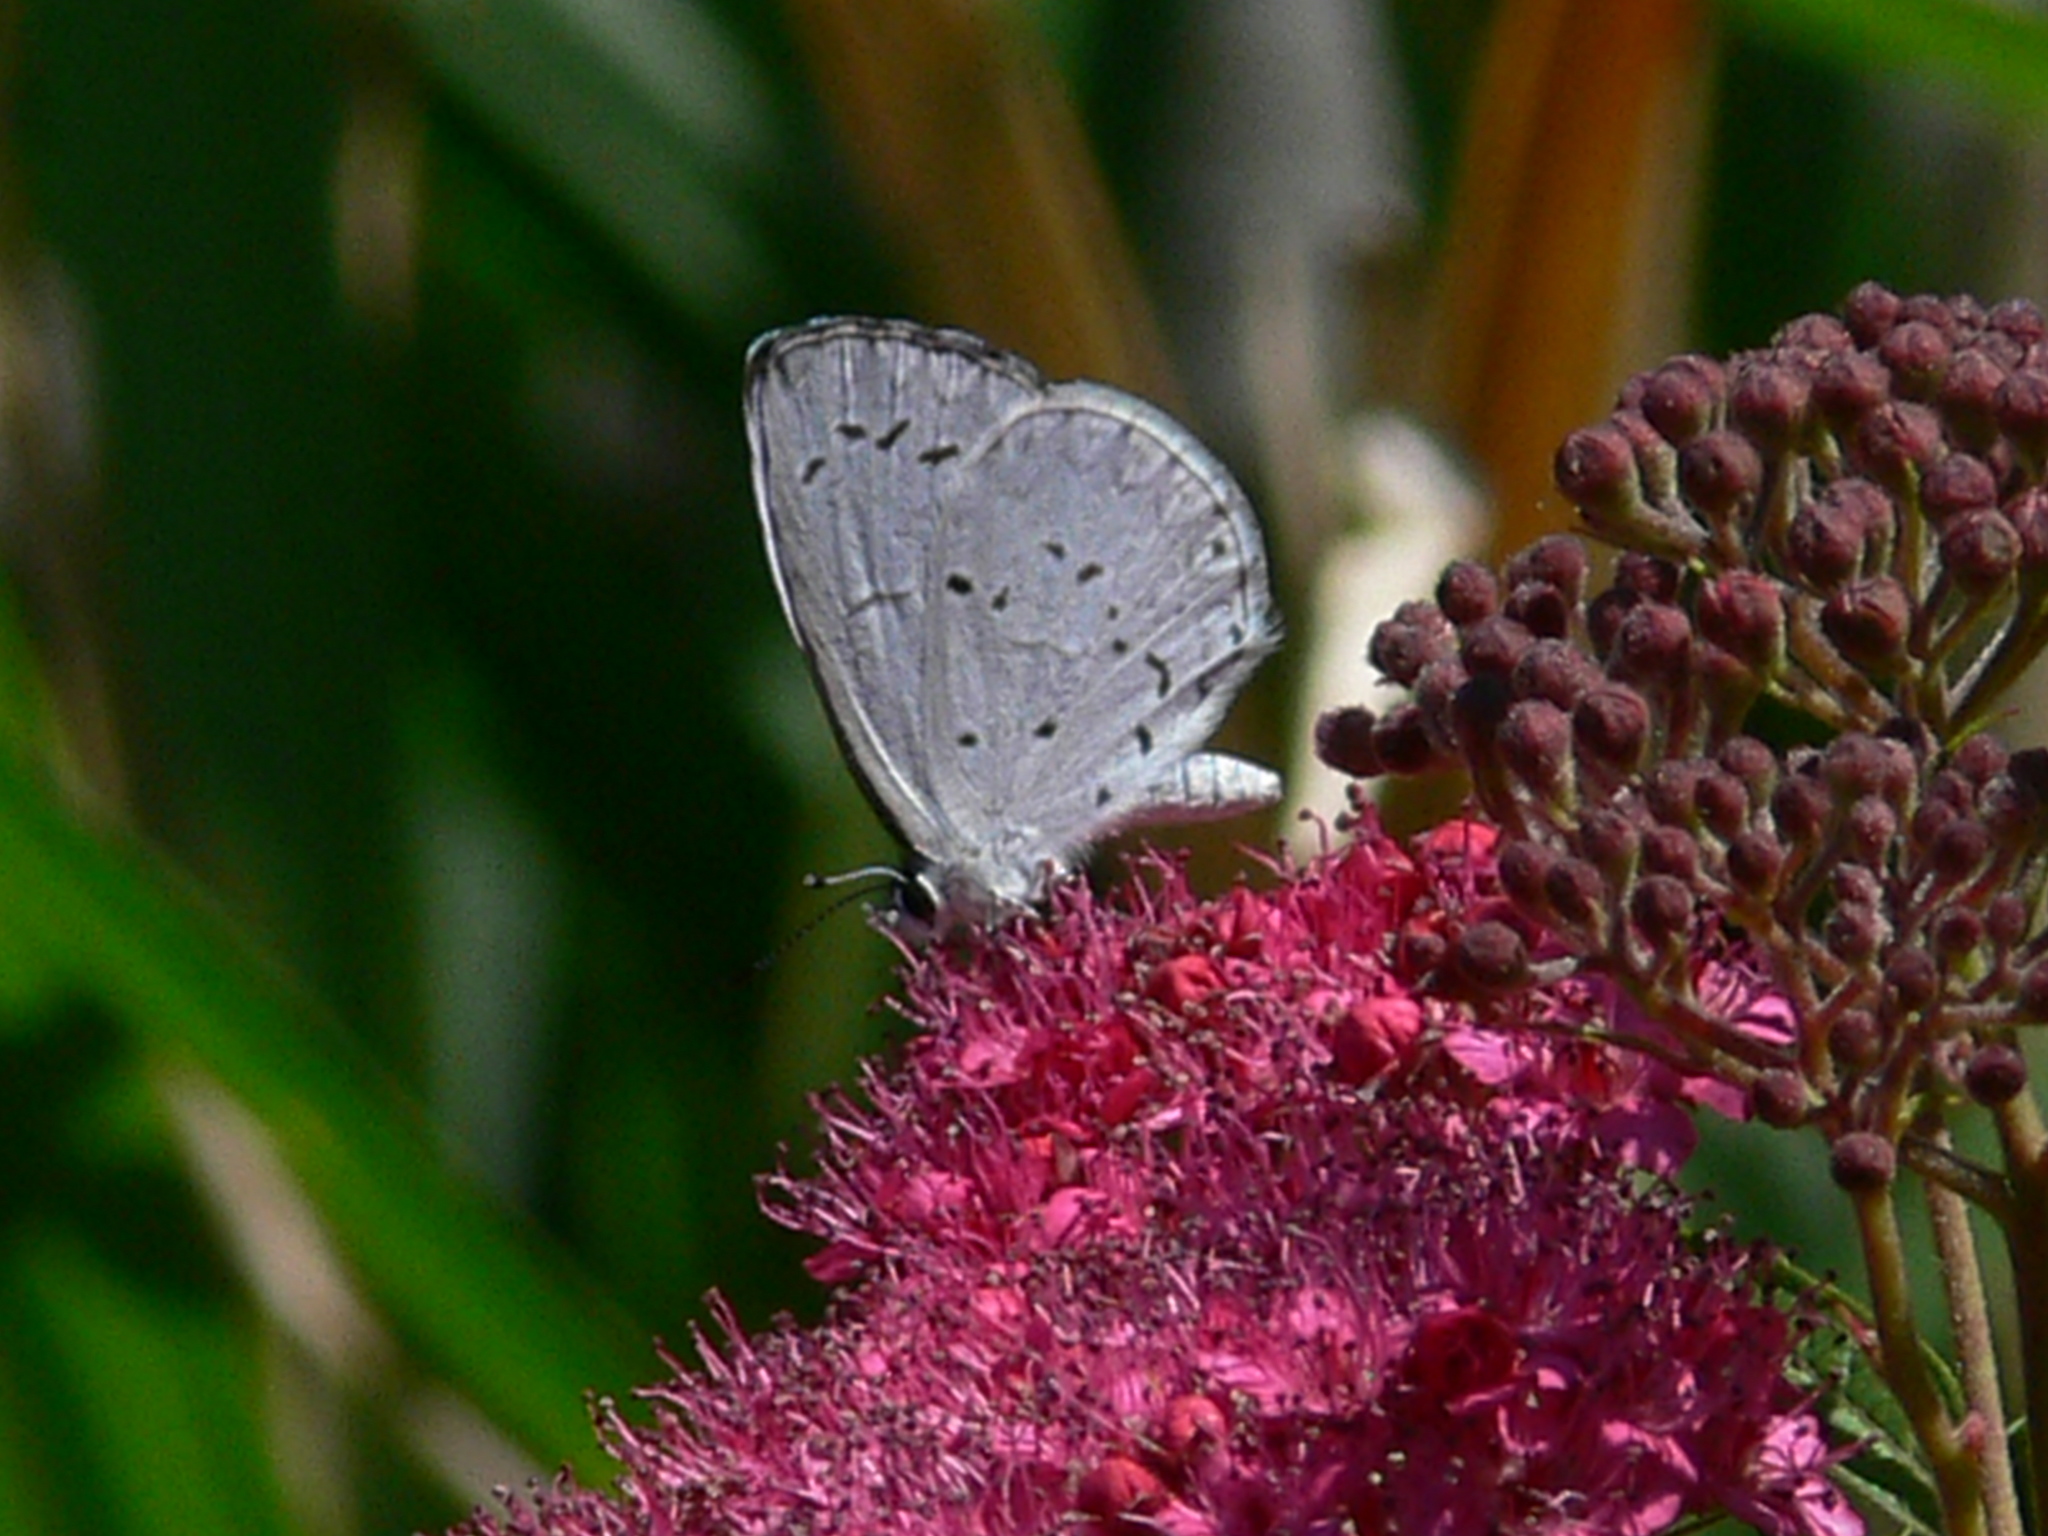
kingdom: Animalia
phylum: Arthropoda
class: Insecta
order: Lepidoptera
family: Lycaenidae
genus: Cyaniris
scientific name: Cyaniris neglecta
